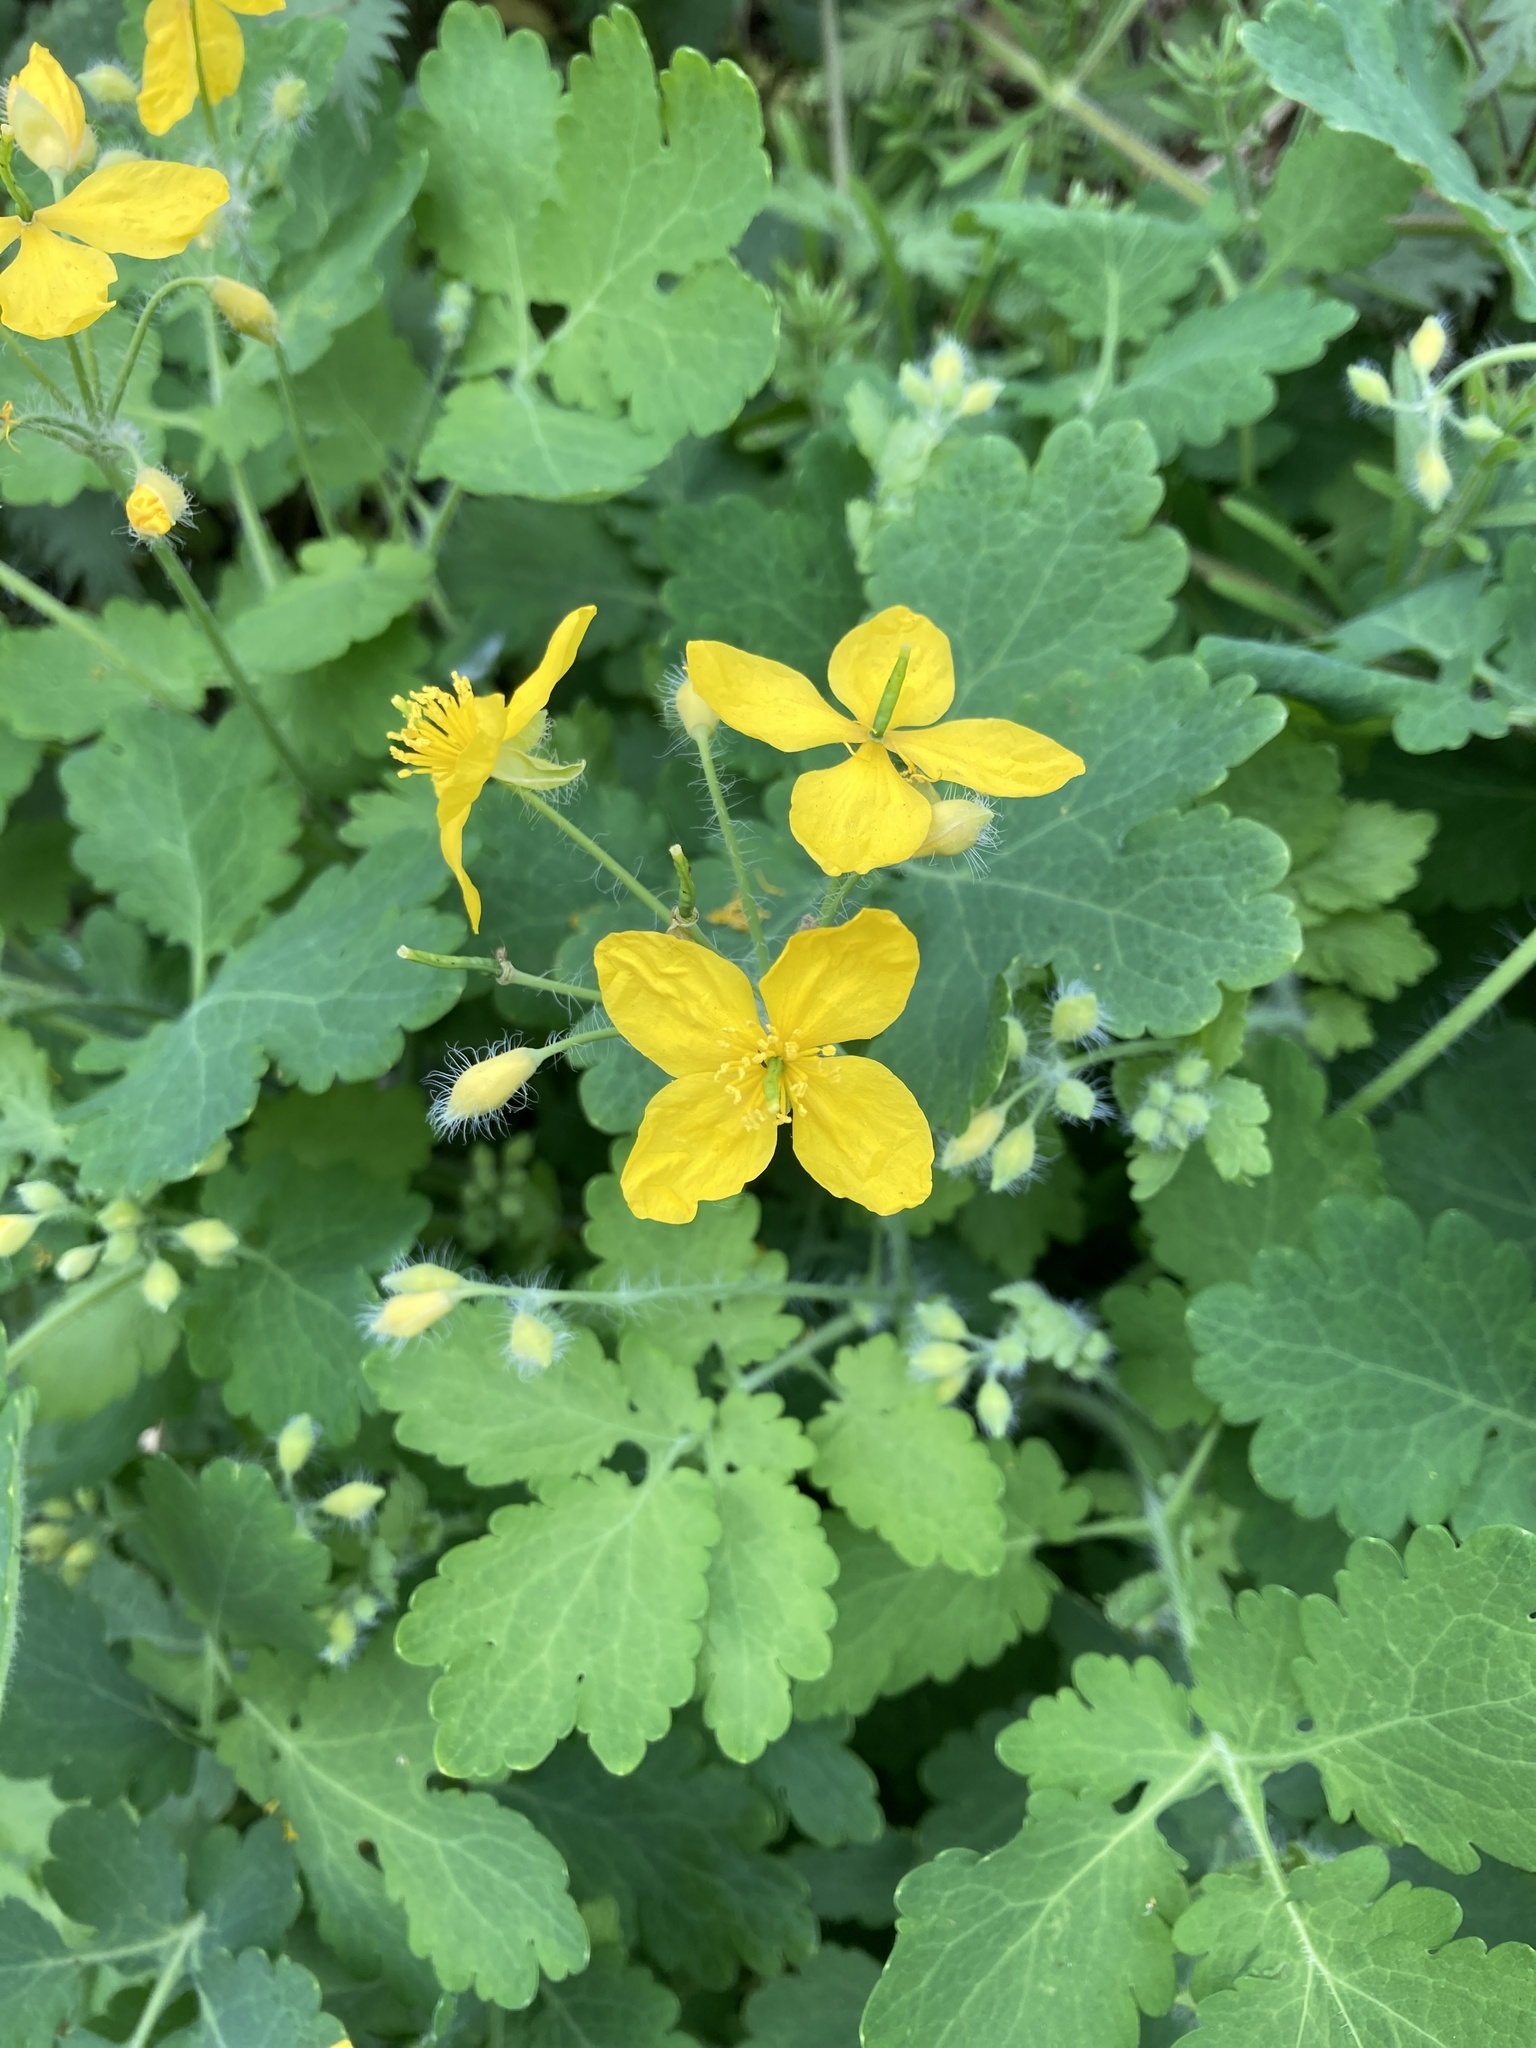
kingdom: Plantae
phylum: Tracheophyta
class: Magnoliopsida
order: Ranunculales
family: Papaveraceae
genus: Chelidonium
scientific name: Chelidonium majus
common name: Greater celandine
